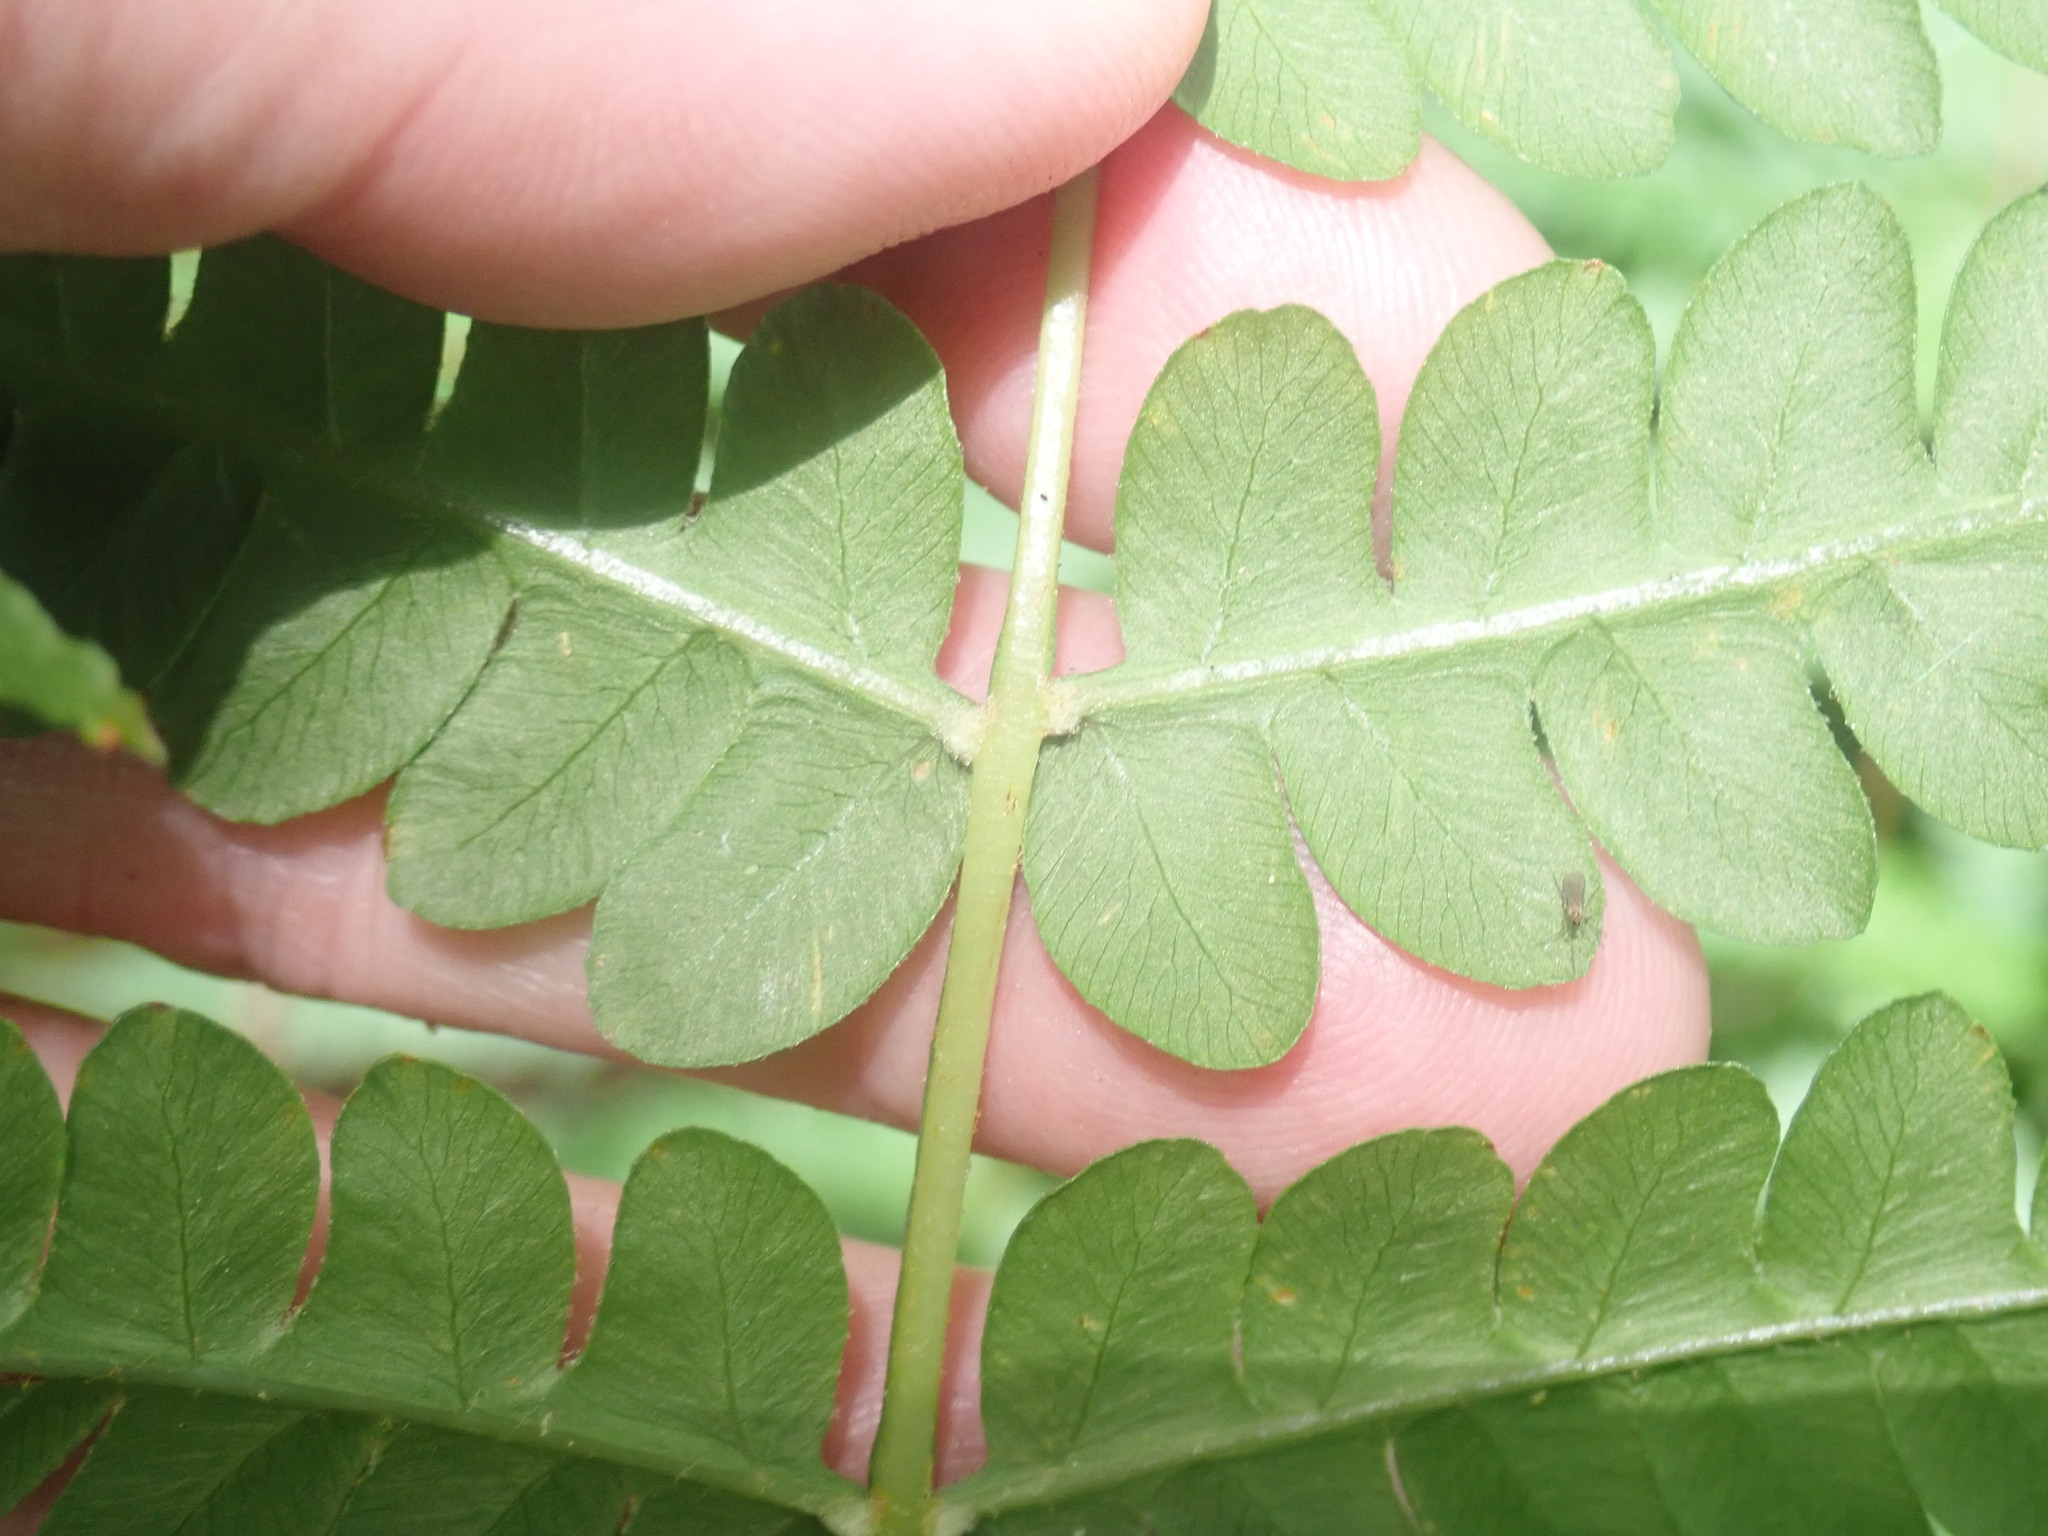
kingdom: Plantae
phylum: Tracheophyta
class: Polypodiopsida
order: Osmundales
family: Osmundaceae
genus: Osmundastrum
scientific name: Osmundastrum cinnamomeum
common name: Cinnamon fern
